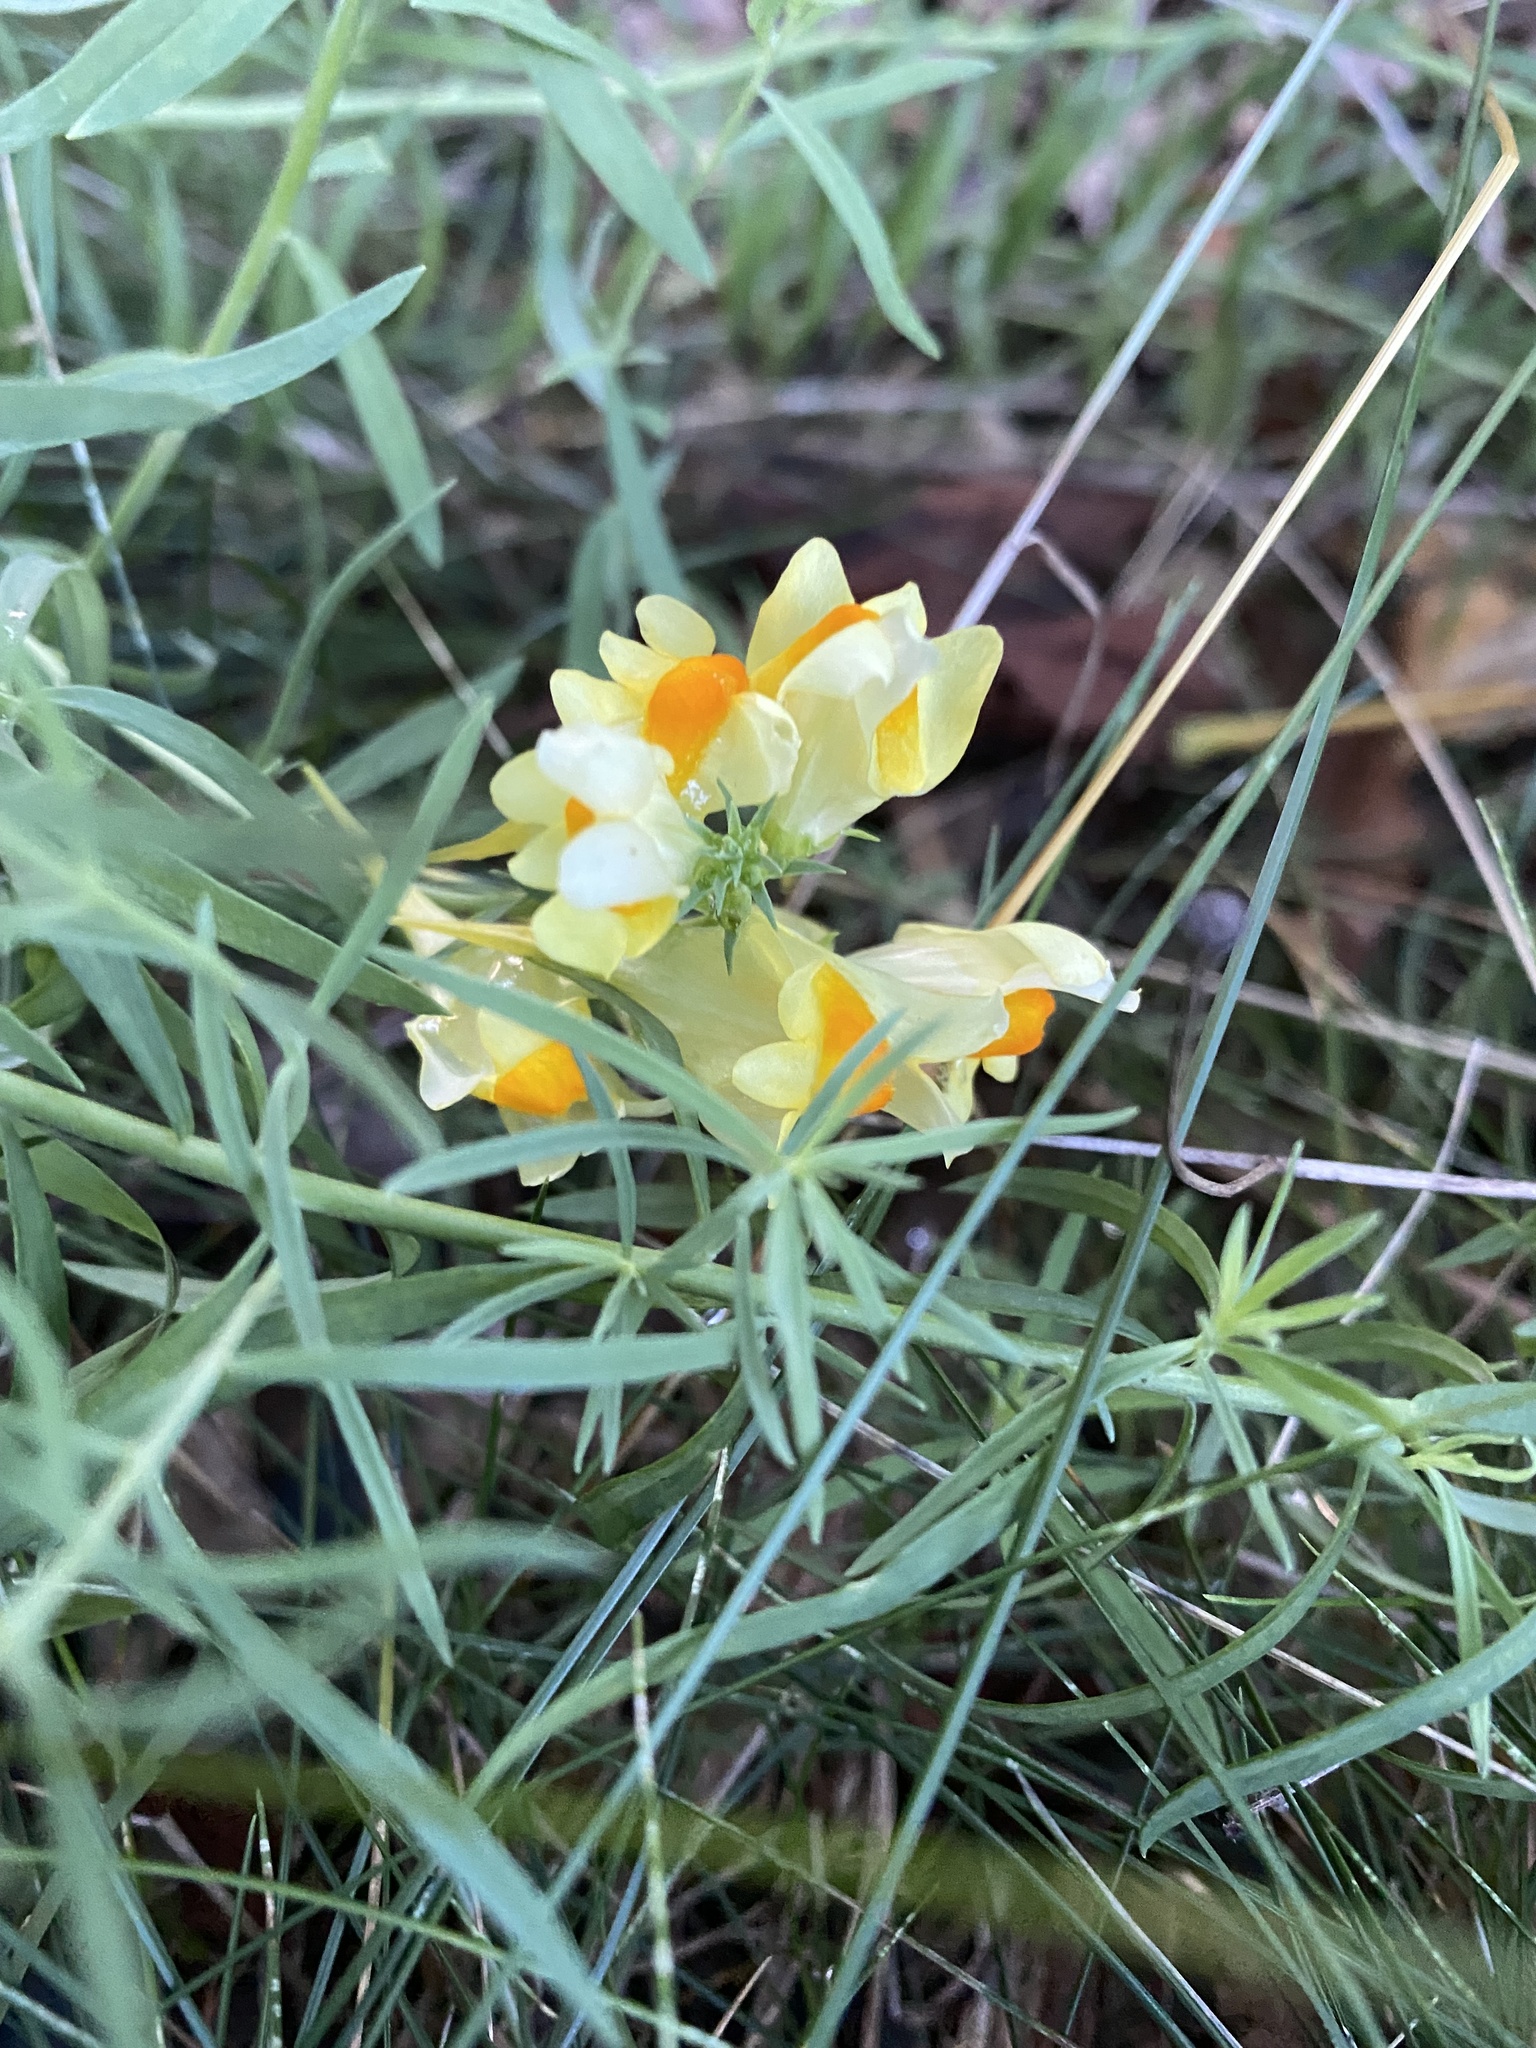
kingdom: Plantae
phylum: Tracheophyta
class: Magnoliopsida
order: Lamiales
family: Plantaginaceae
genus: Linaria
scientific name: Linaria vulgaris
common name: Butter and eggs
